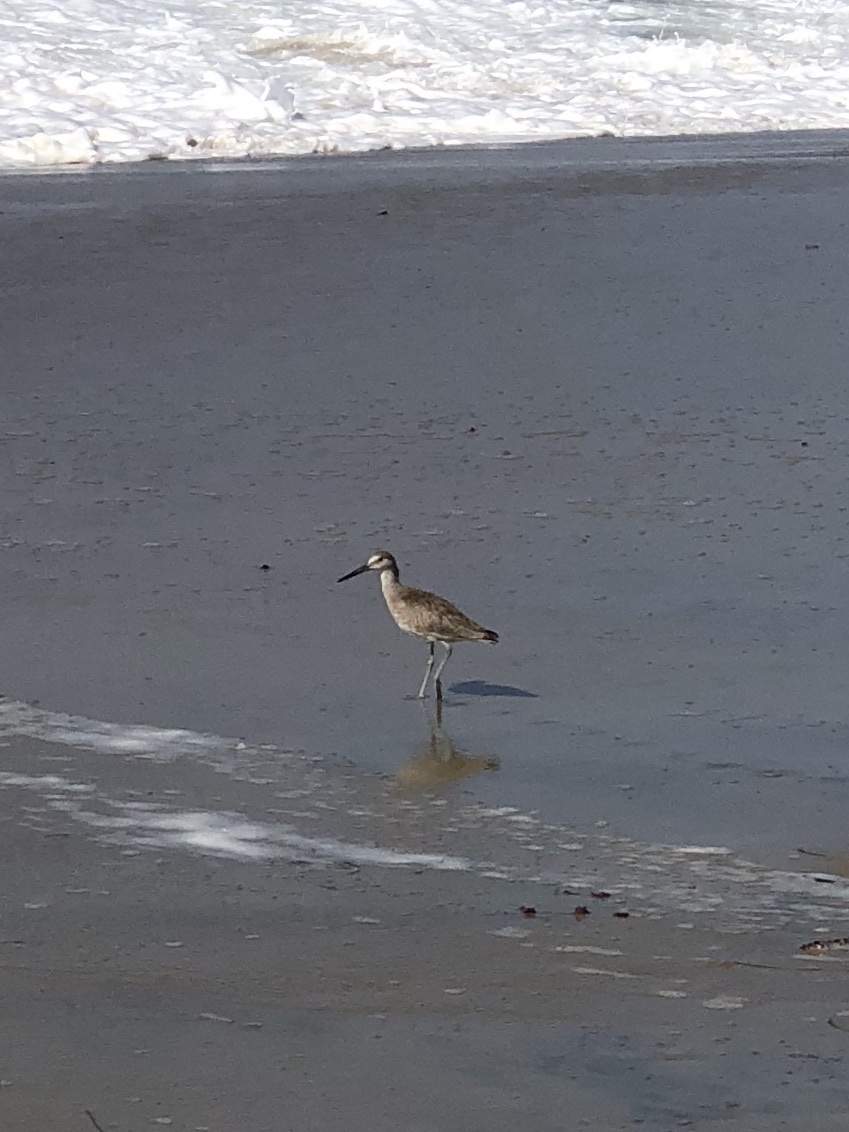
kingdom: Animalia
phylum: Chordata
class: Aves
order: Charadriiformes
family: Scolopacidae
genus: Tringa
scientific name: Tringa semipalmata
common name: Willet
